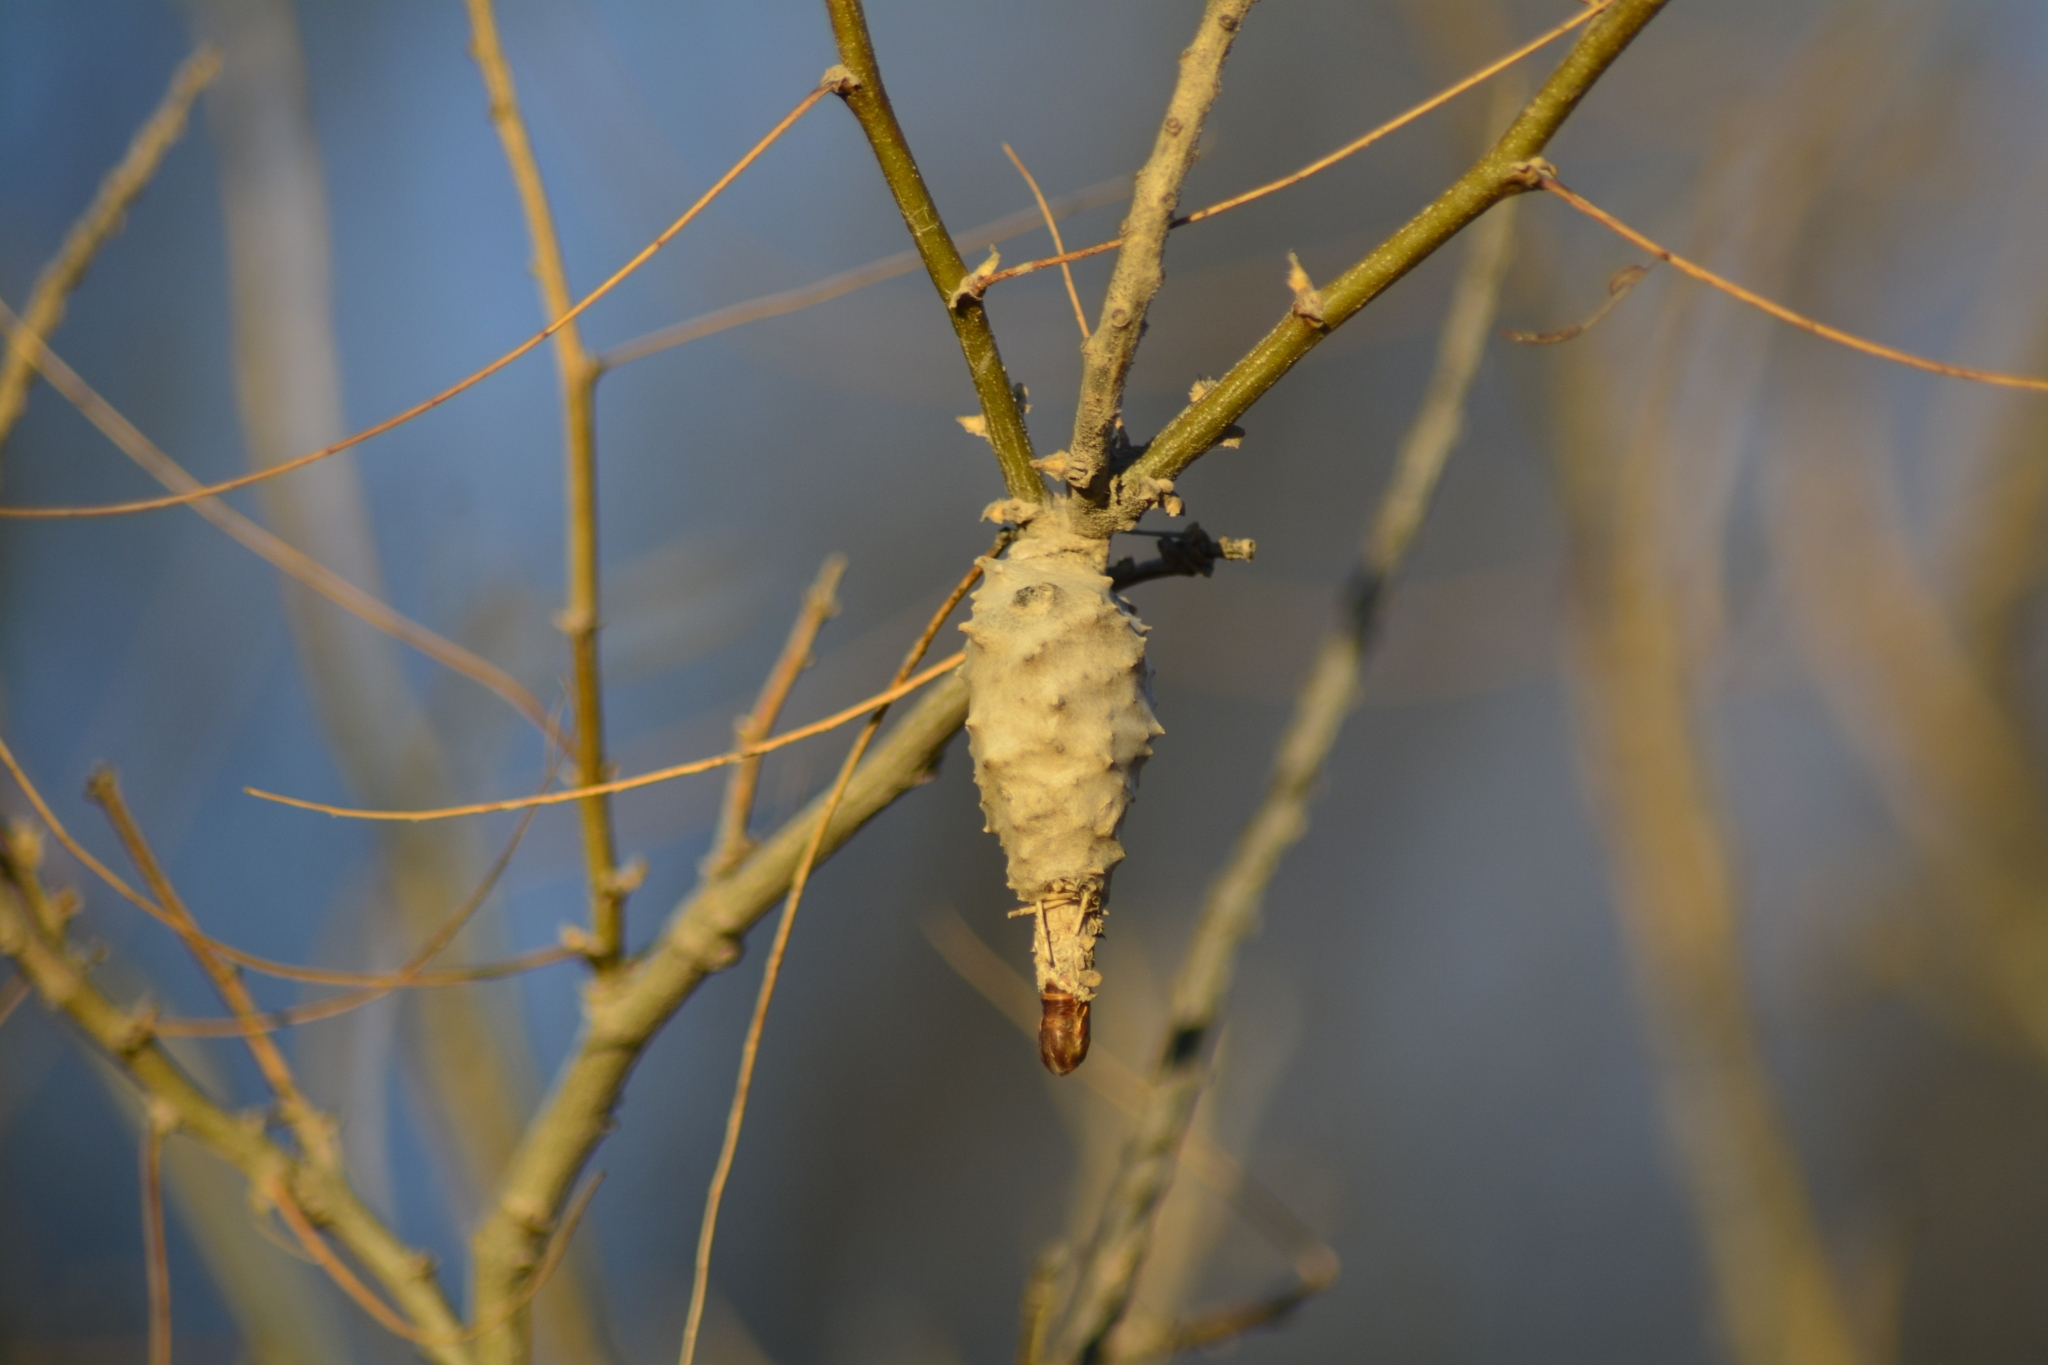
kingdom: Animalia
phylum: Arthropoda
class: Insecta
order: Lepidoptera
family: Psychidae
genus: Oiketicus
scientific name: Oiketicus
